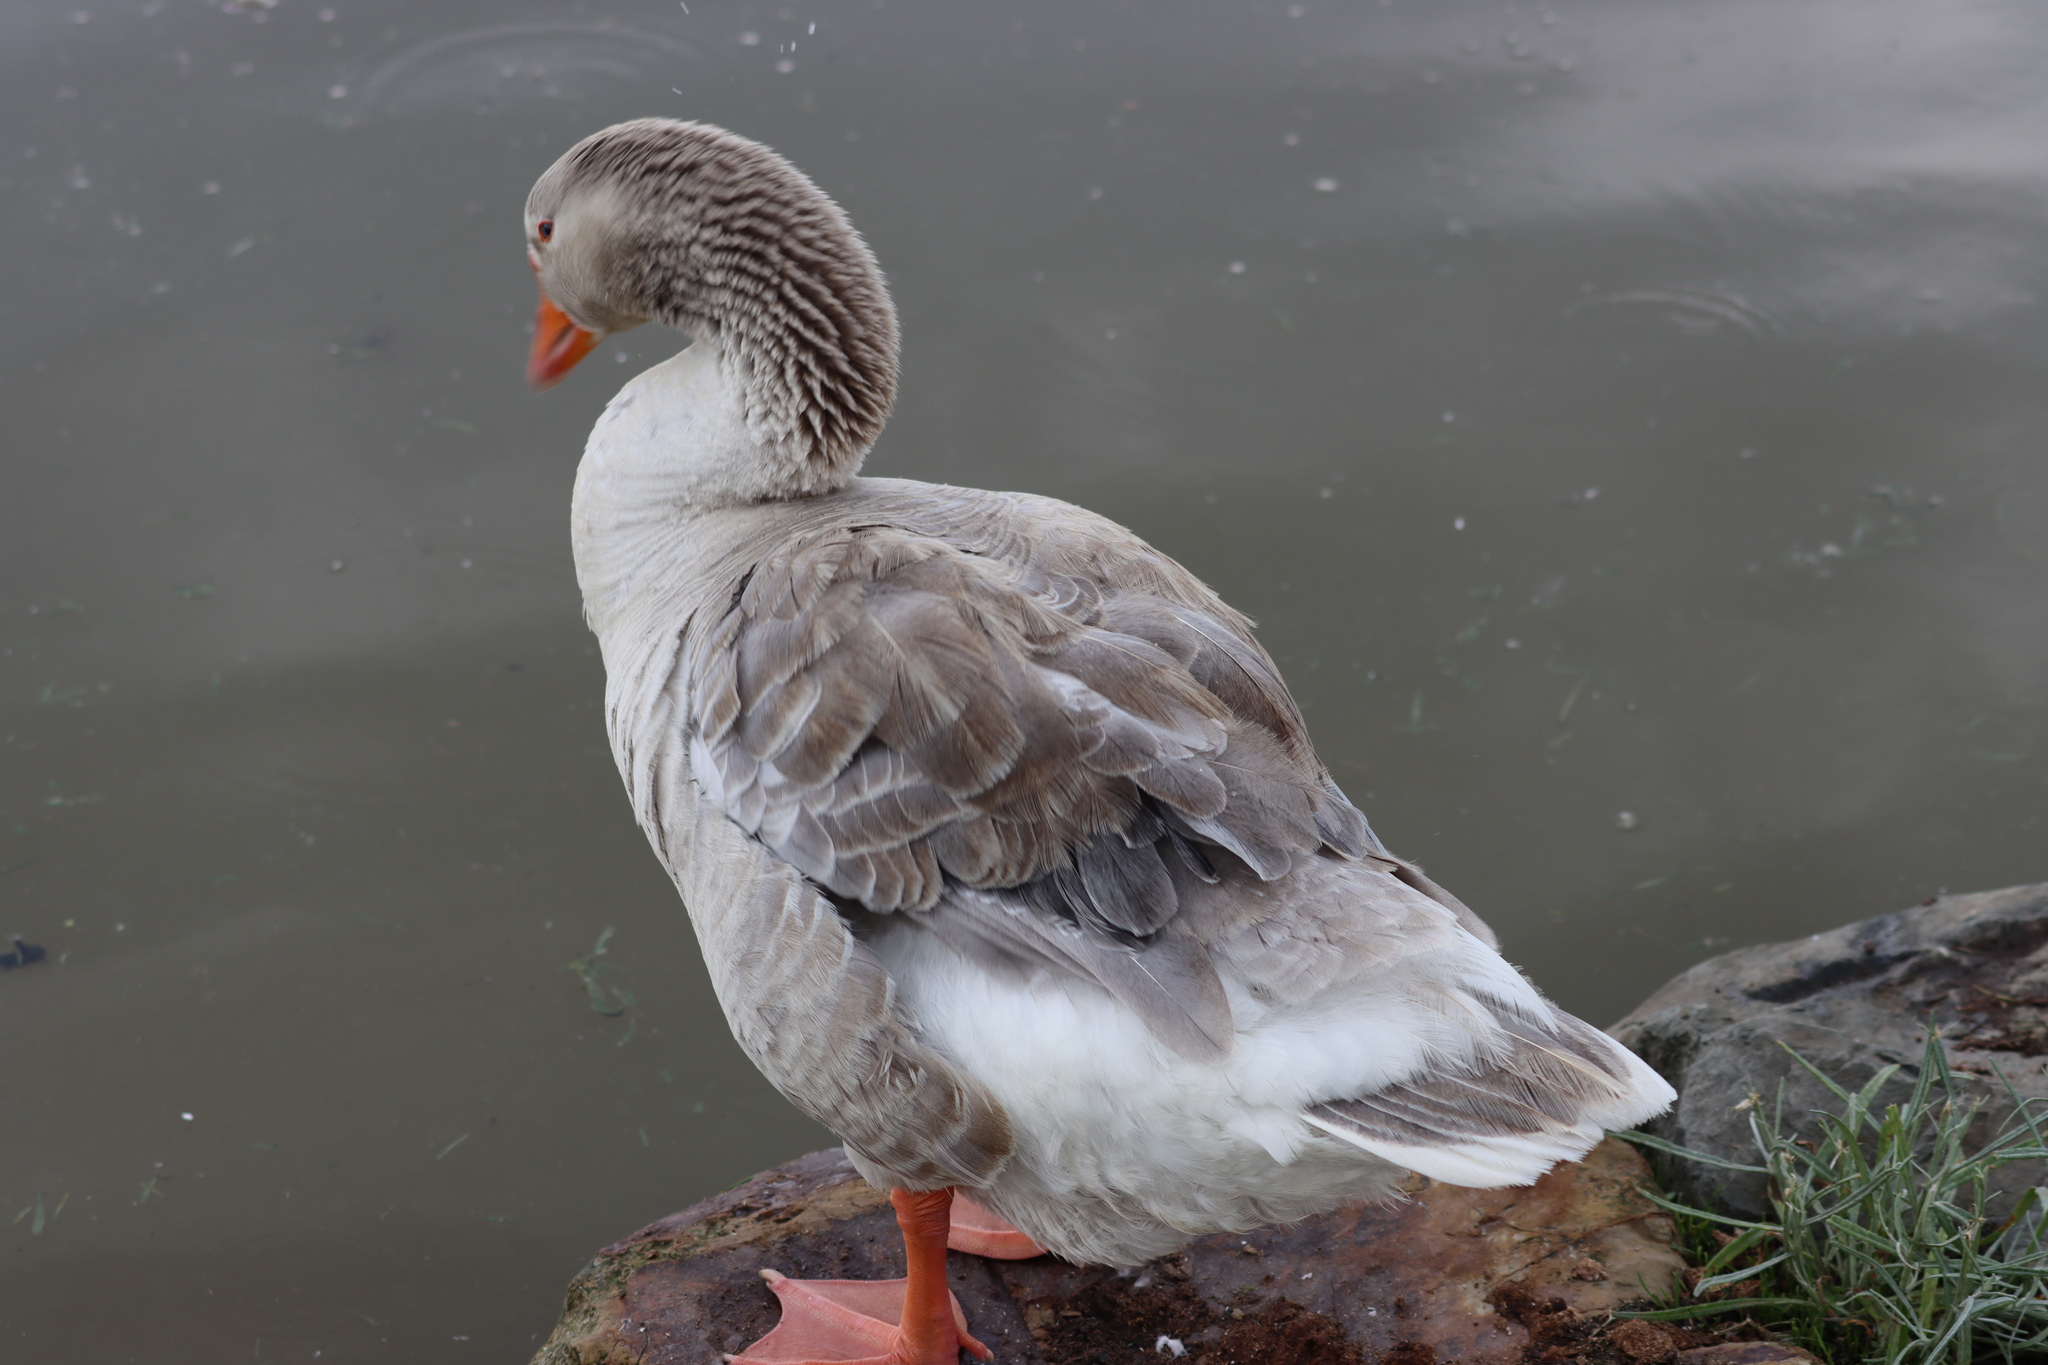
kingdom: Animalia
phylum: Chordata
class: Aves
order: Anseriformes
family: Anatidae
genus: Anser
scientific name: Anser anser
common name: Greylag goose
